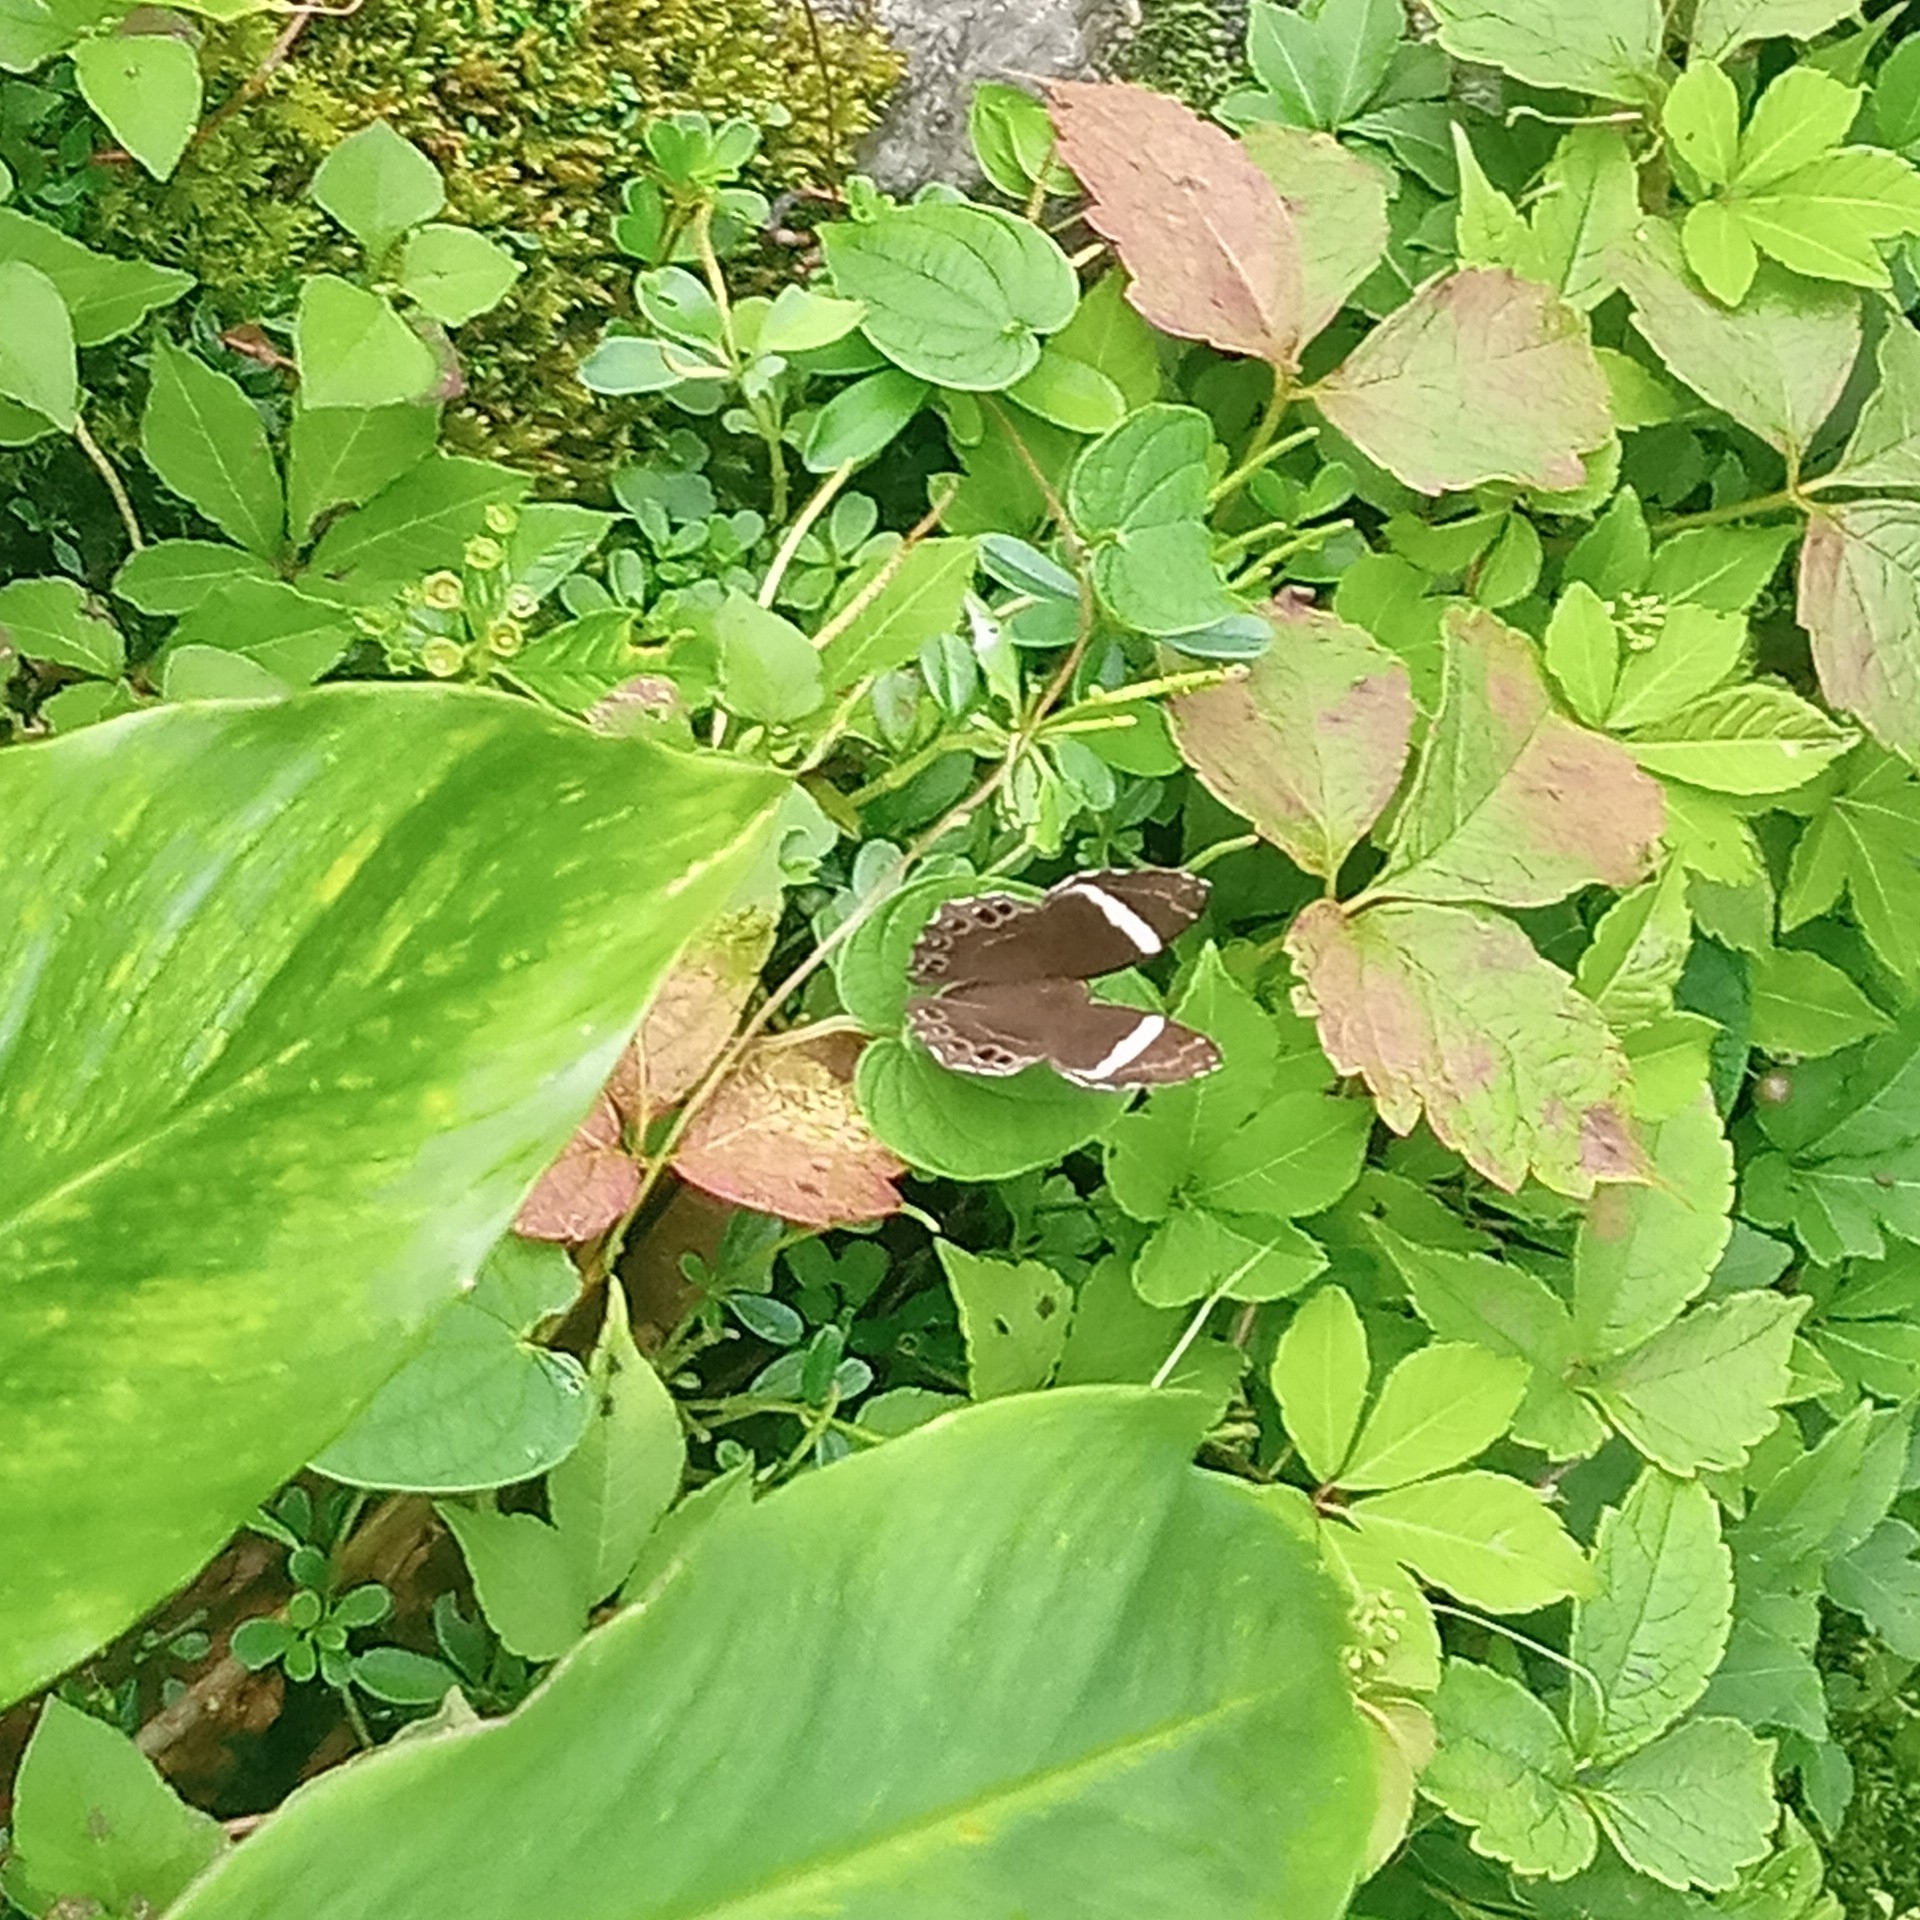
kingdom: Animalia
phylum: Arthropoda
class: Insecta
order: Lepidoptera
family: Lycaenidae
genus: Abisara
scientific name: Abisara fylla
